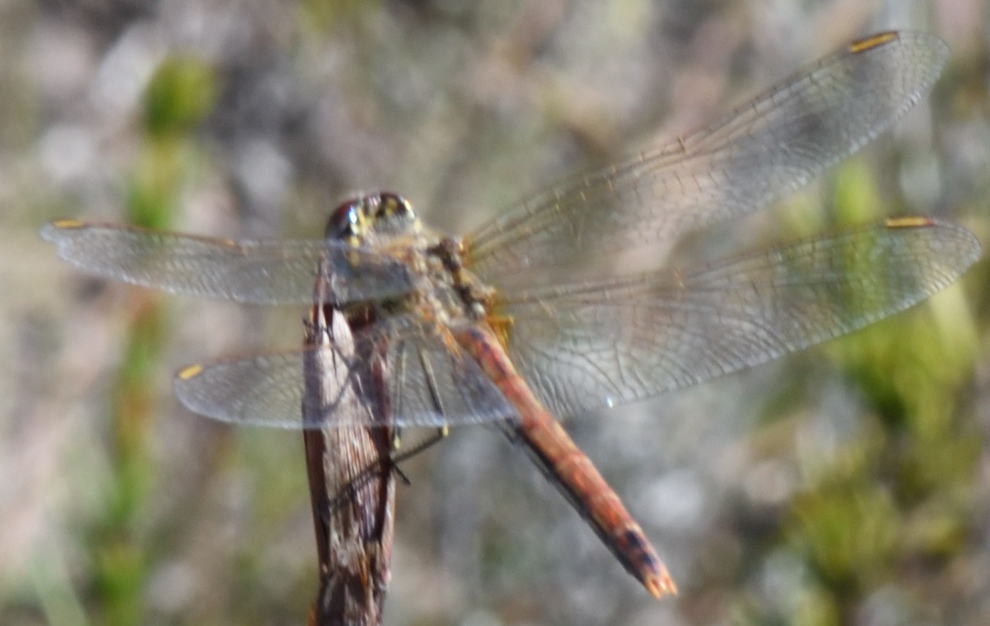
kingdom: Animalia
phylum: Arthropoda
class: Insecta
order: Odonata
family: Libellulidae
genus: Sympetrum
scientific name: Sympetrum fonscolombii
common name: Red-veined darter
